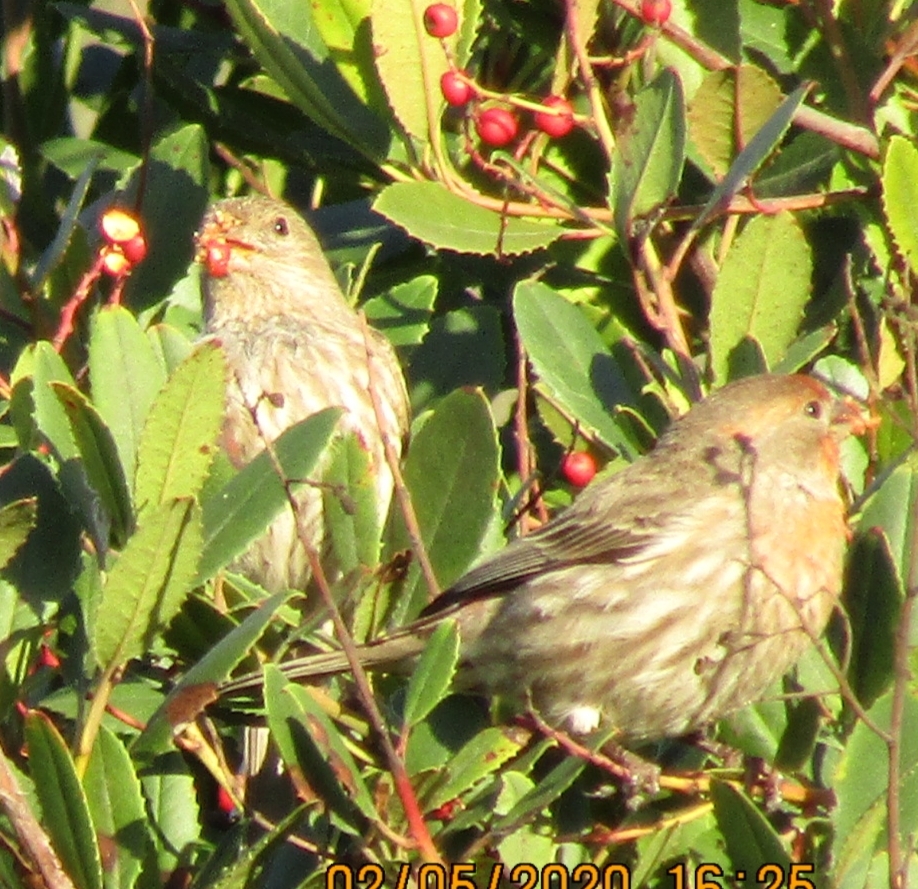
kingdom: Animalia
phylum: Chordata
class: Aves
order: Passeriformes
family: Fringillidae
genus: Haemorhous
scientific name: Haemorhous mexicanus
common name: House finch
